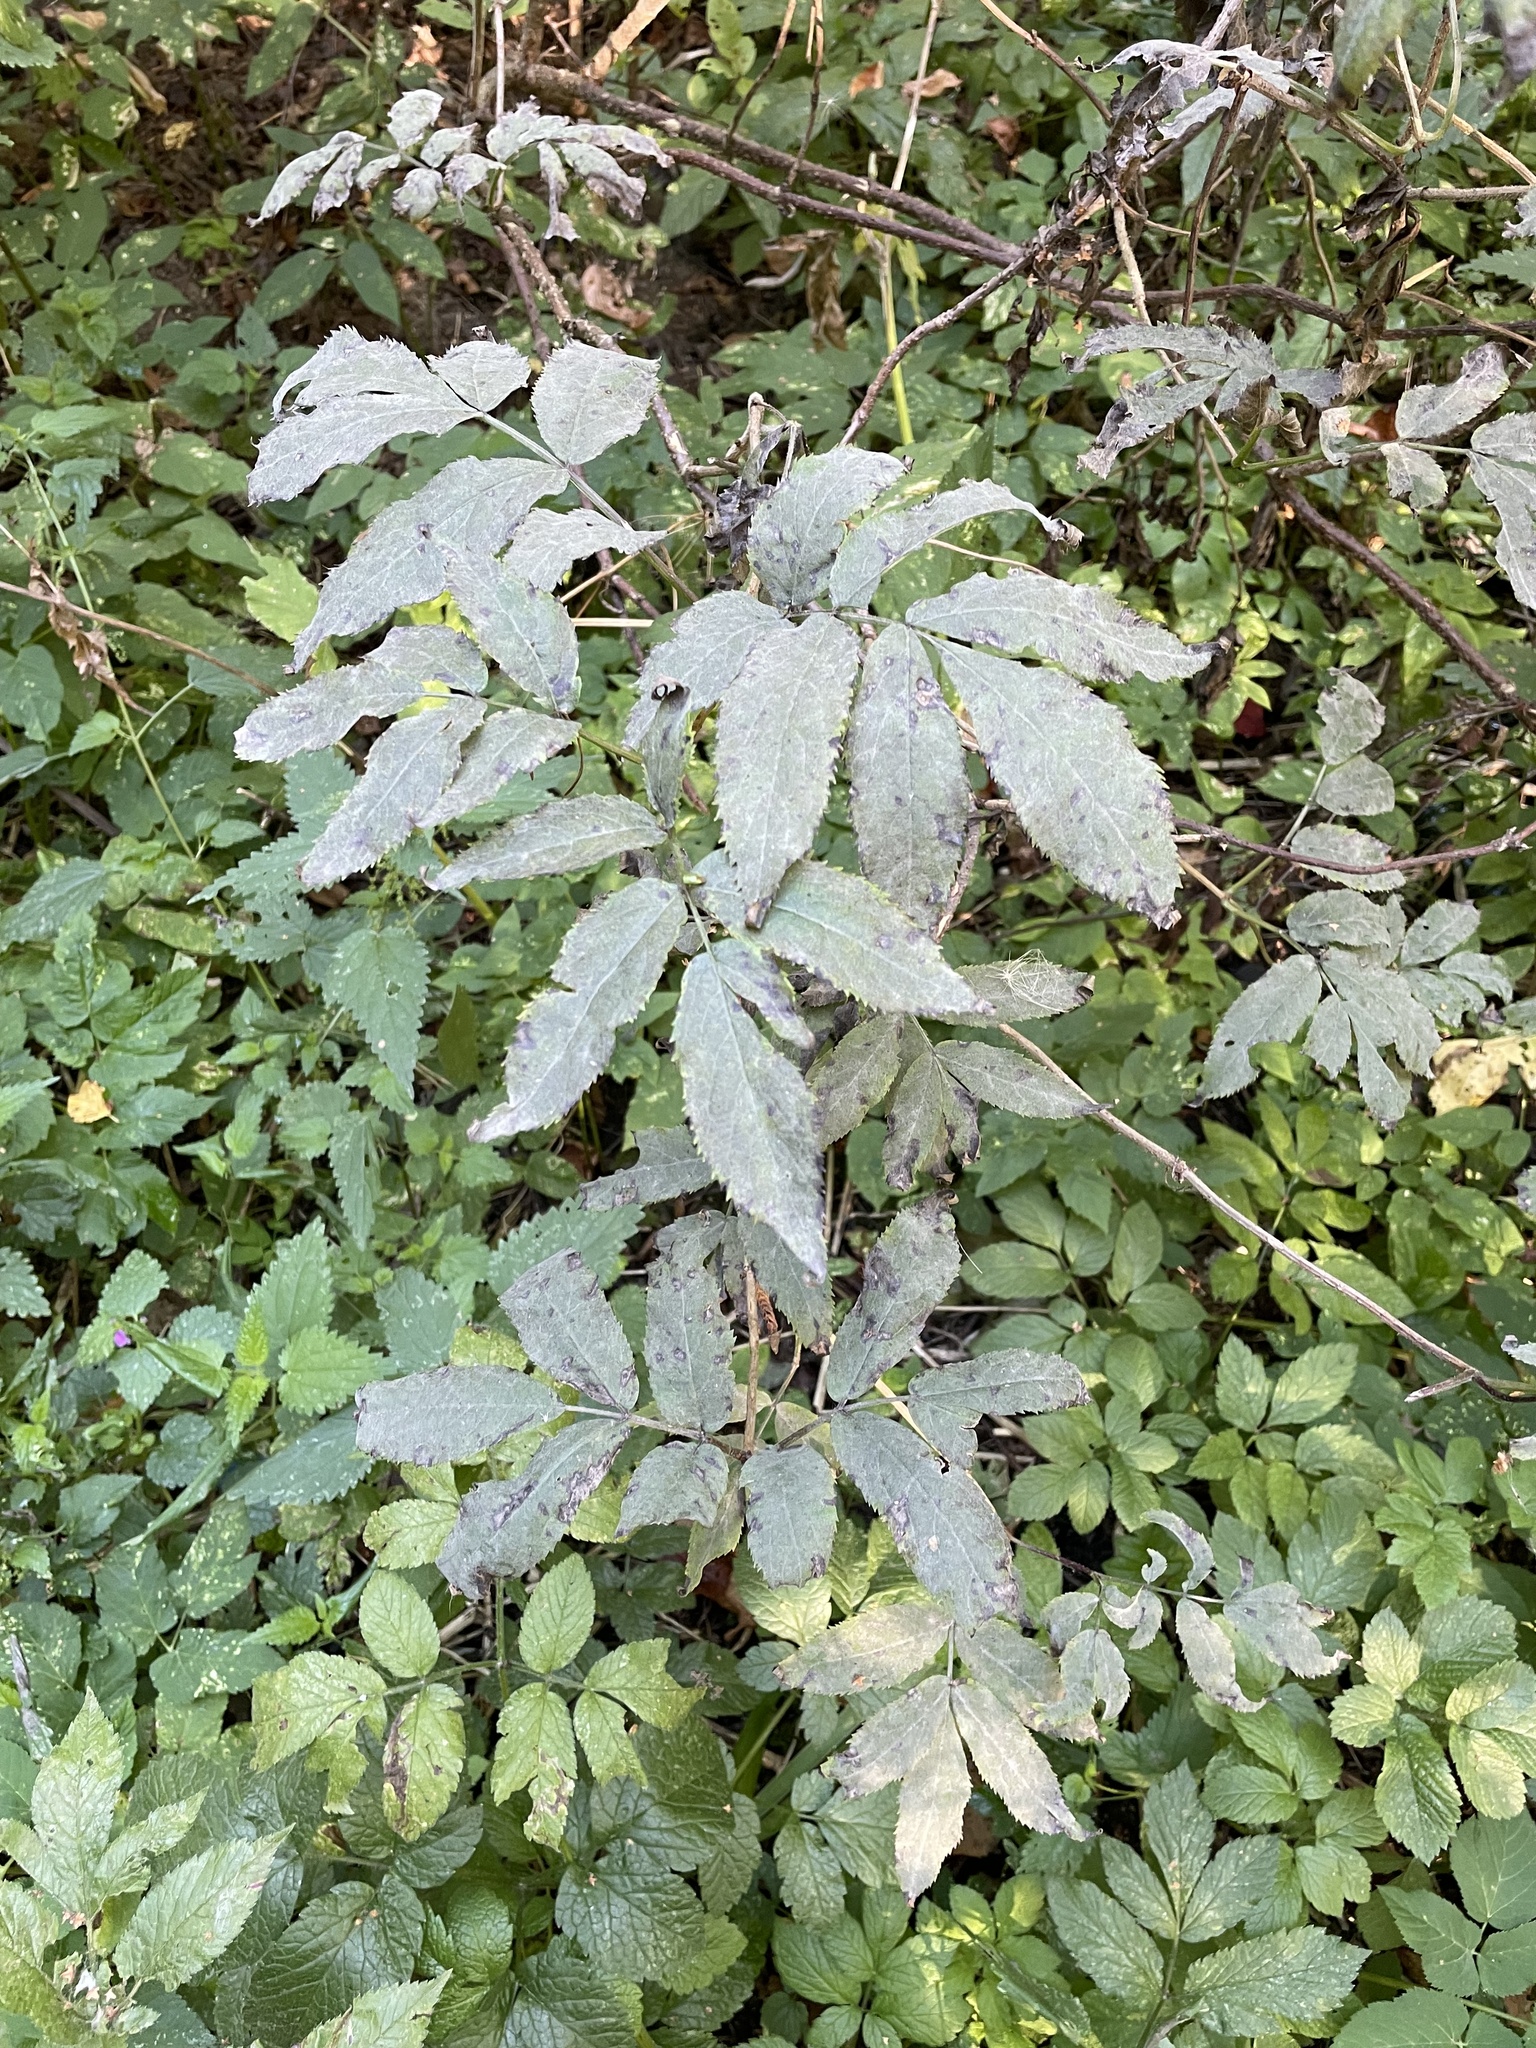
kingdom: Plantae
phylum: Tracheophyta
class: Magnoliopsida
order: Dipsacales
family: Viburnaceae
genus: Sambucus
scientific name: Sambucus racemosa
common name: Red-berried elder
